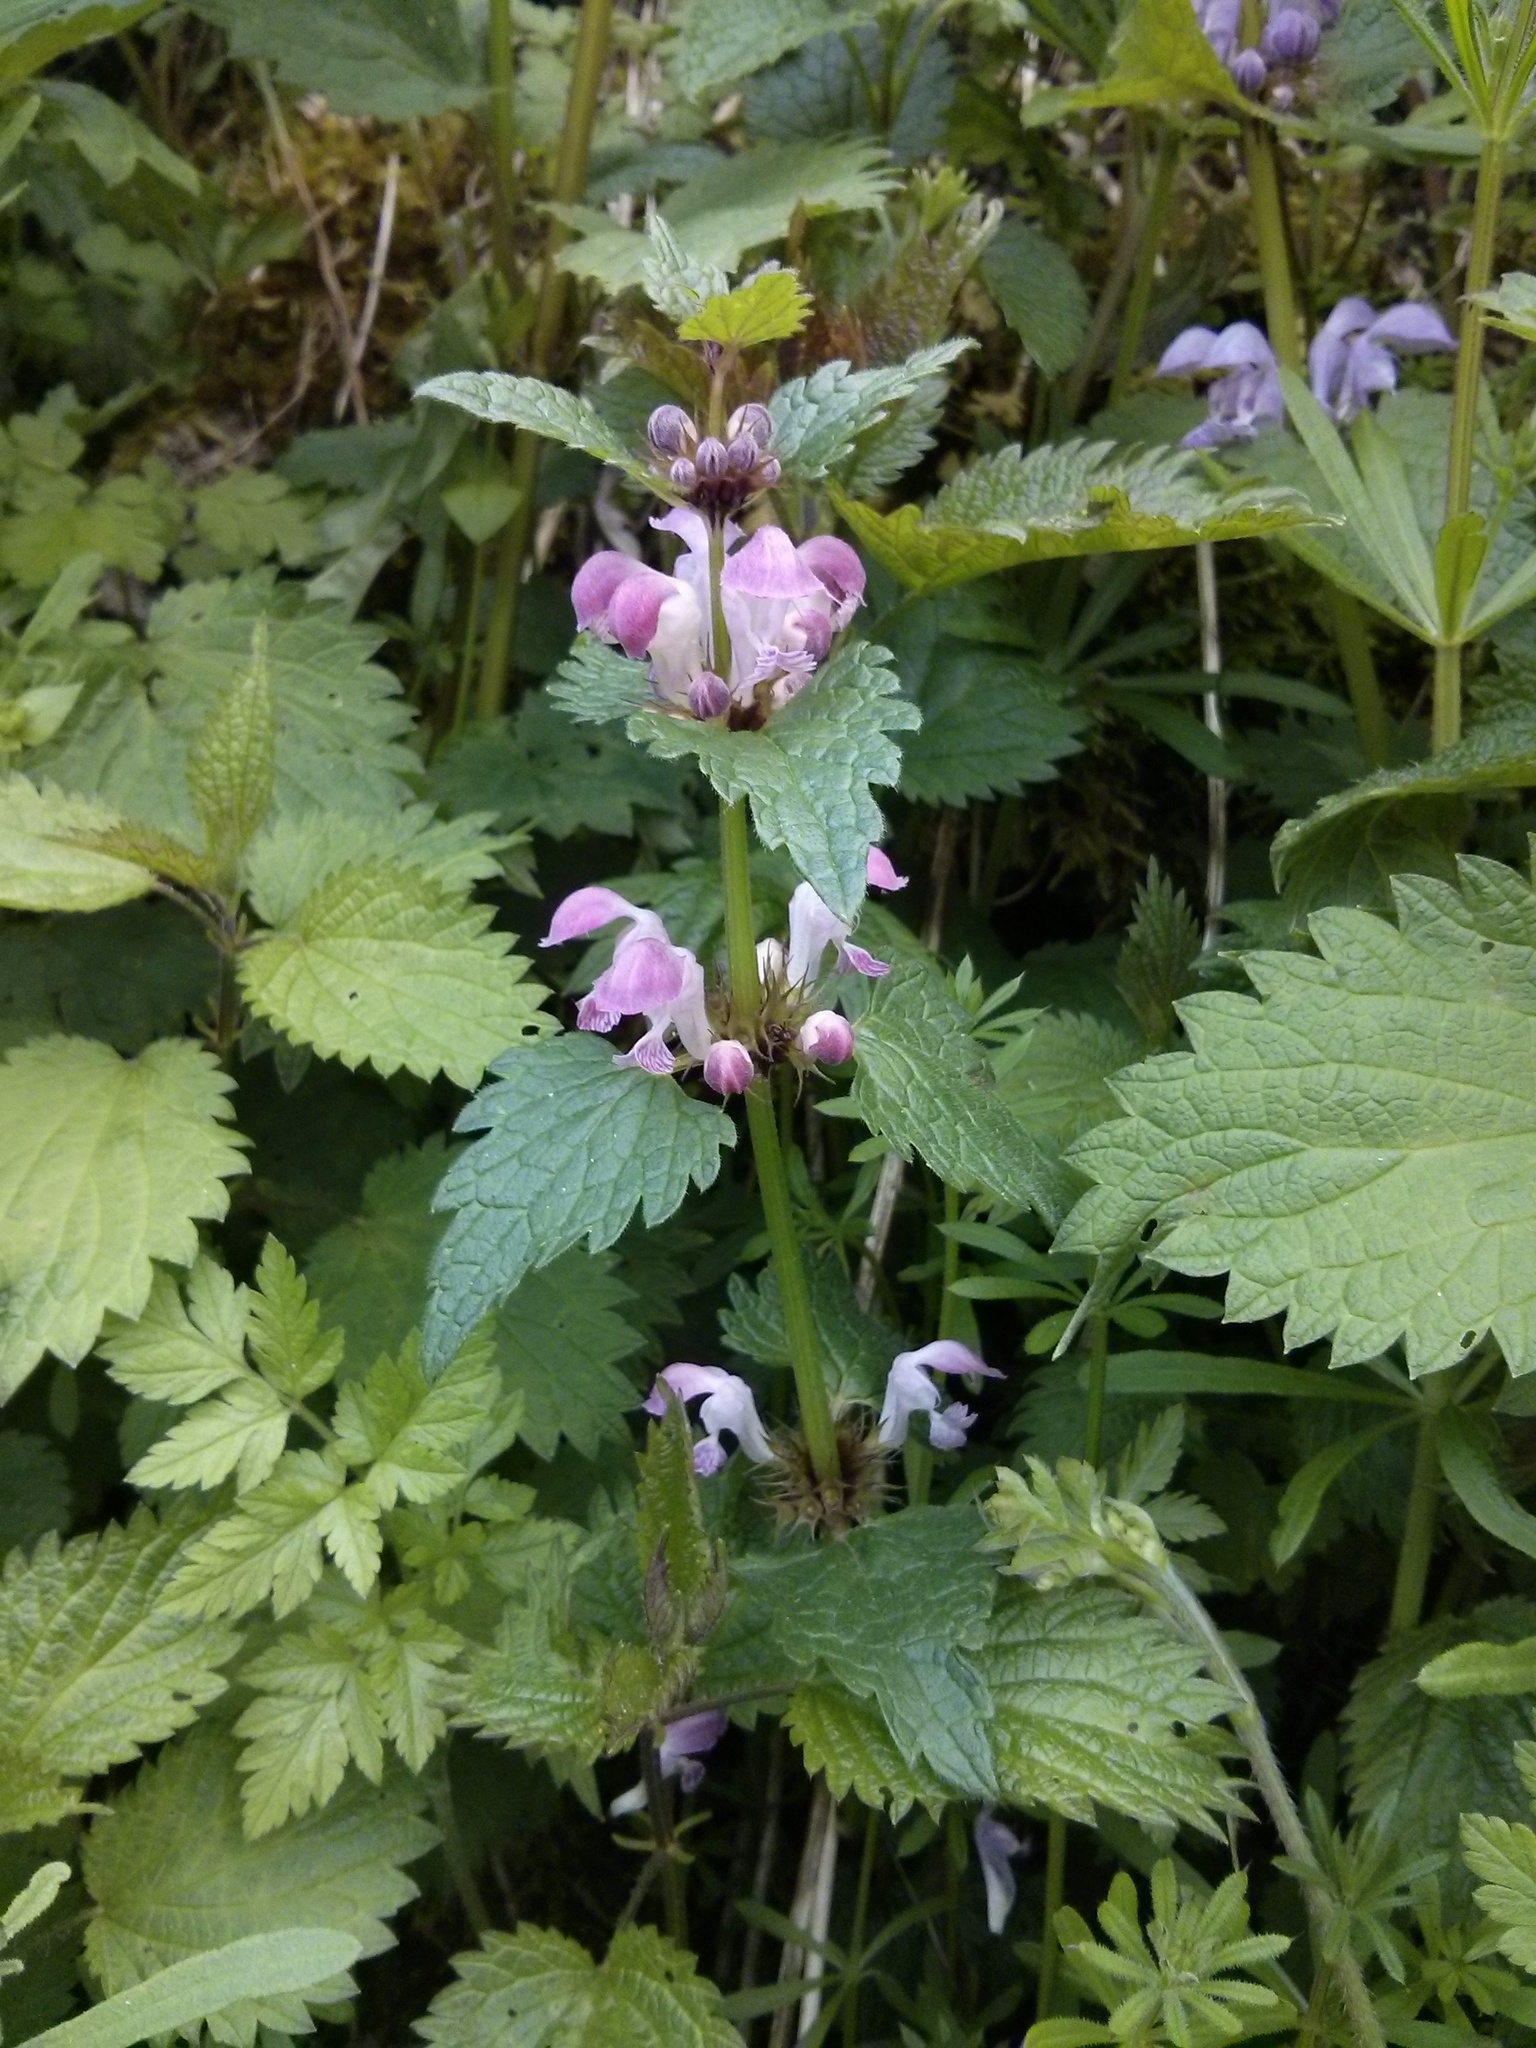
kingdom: Plantae
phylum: Tracheophyta
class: Magnoliopsida
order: Lamiales
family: Lamiaceae
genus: Lamium
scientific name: Lamium maculatum
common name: Spotted dead-nettle
